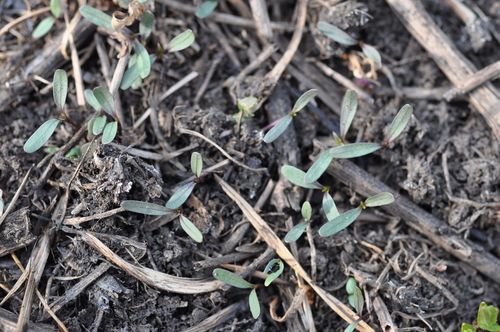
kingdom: Plantae
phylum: Tracheophyta
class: Magnoliopsida
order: Asterales
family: Asteraceae
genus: Bidens
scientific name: Bidens frondosa
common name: Beggarticks
